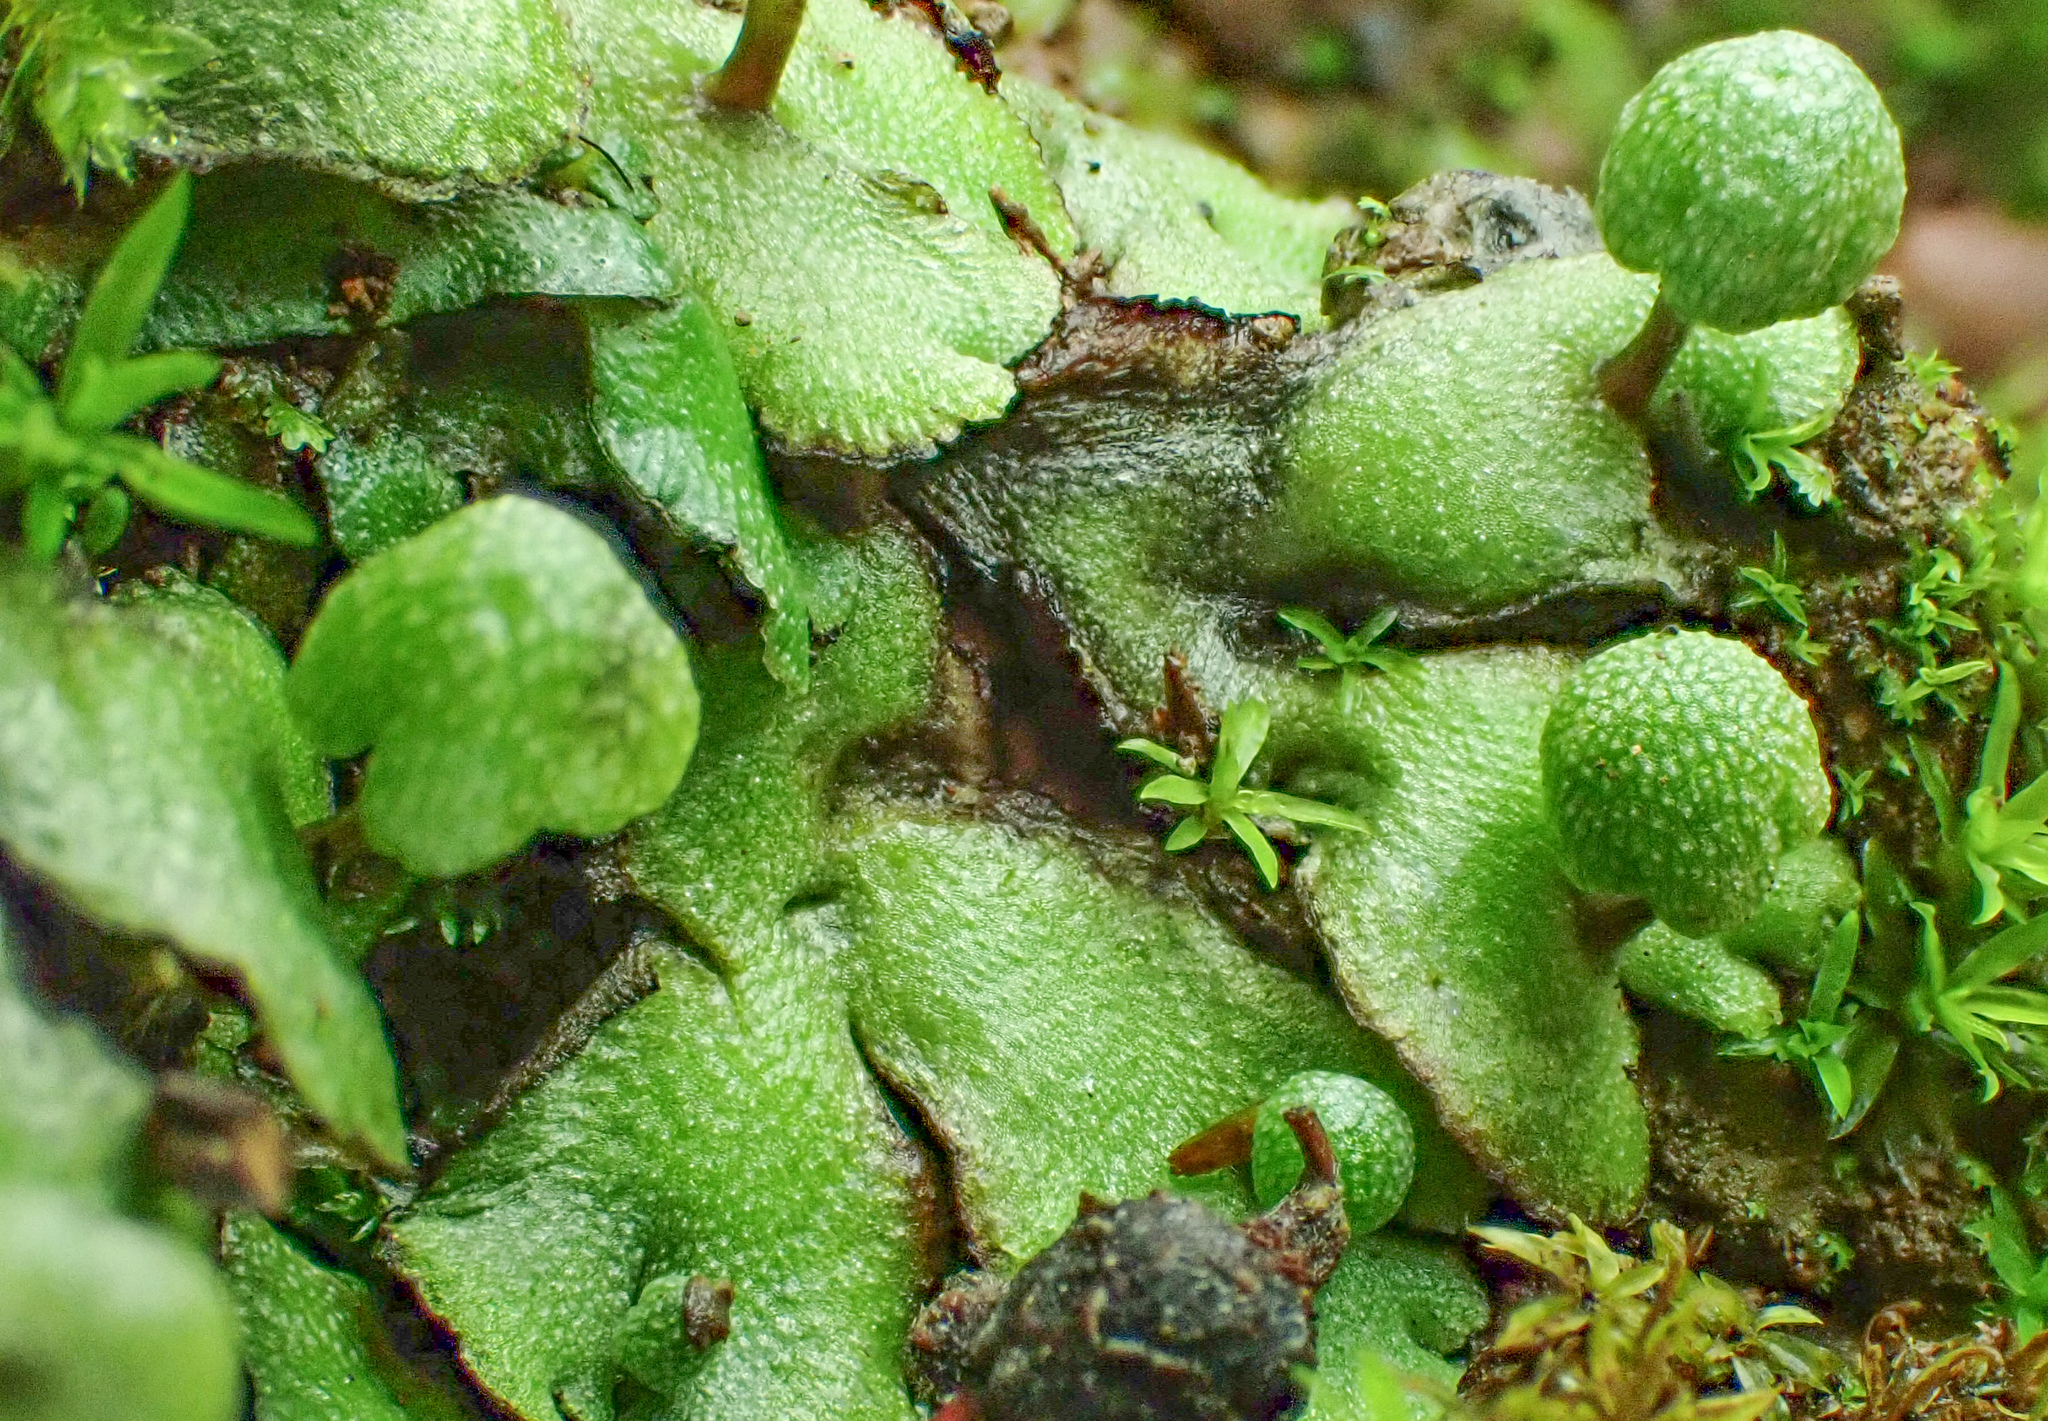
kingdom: Plantae
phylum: Marchantiophyta
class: Marchantiopsida
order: Marchantiales
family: Aytoniaceae
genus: Asterella
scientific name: Asterella californica
